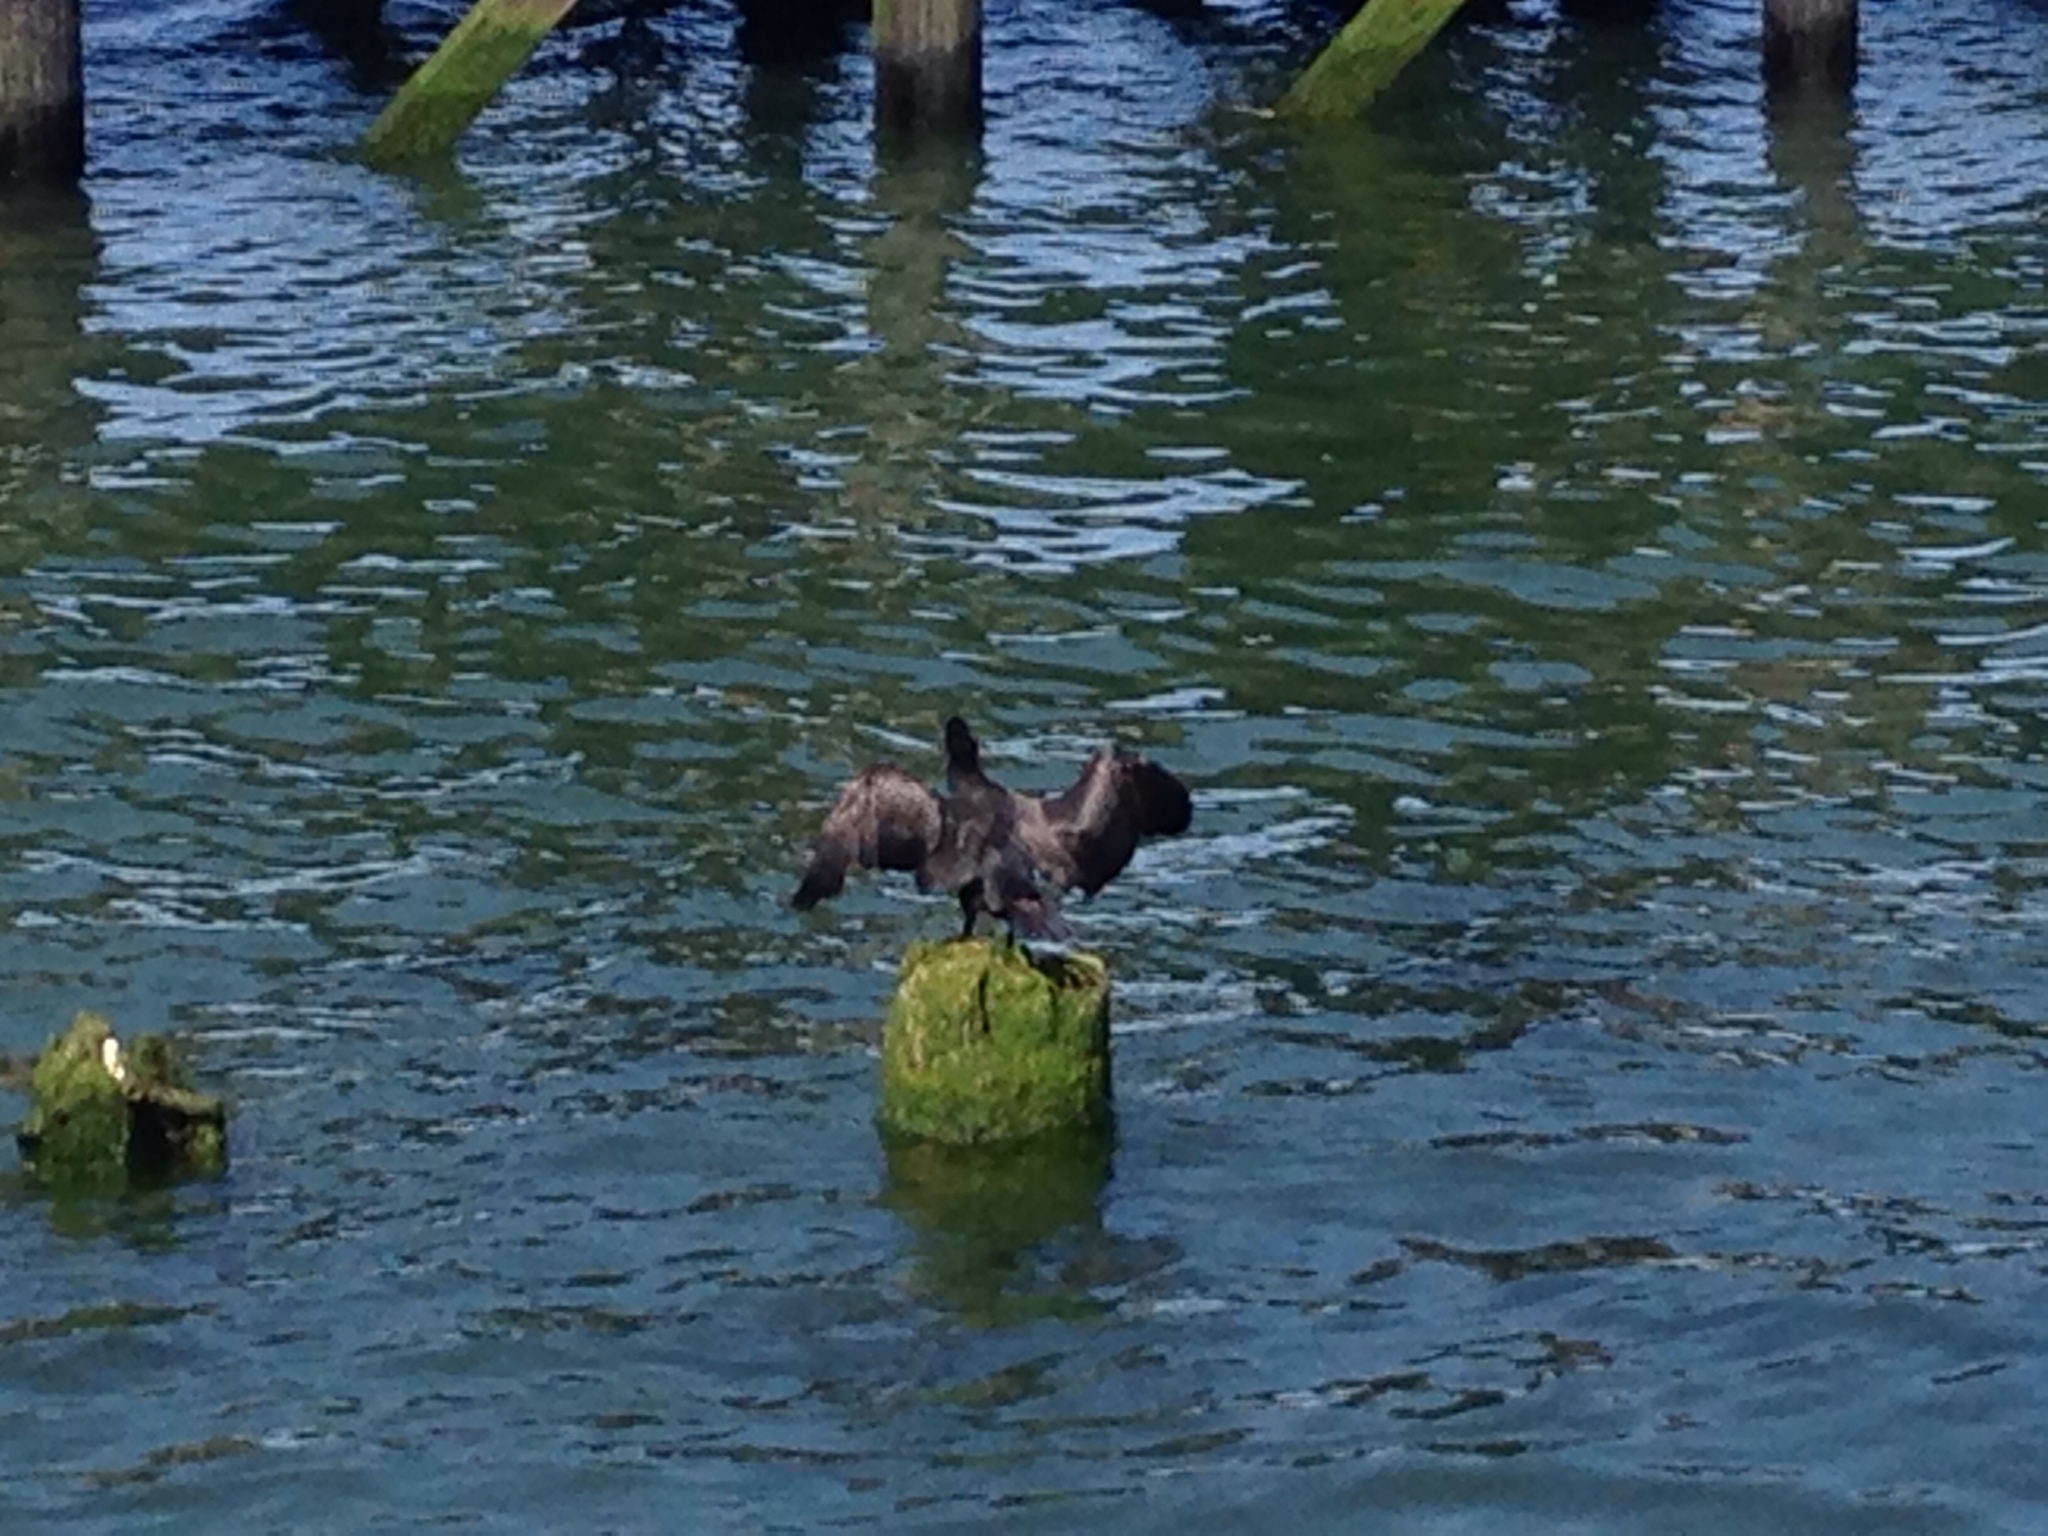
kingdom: Animalia
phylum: Chordata
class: Aves
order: Suliformes
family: Phalacrocoracidae
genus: Phalacrocorax
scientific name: Phalacrocorax pelagicus
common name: Pelagic cormorant
